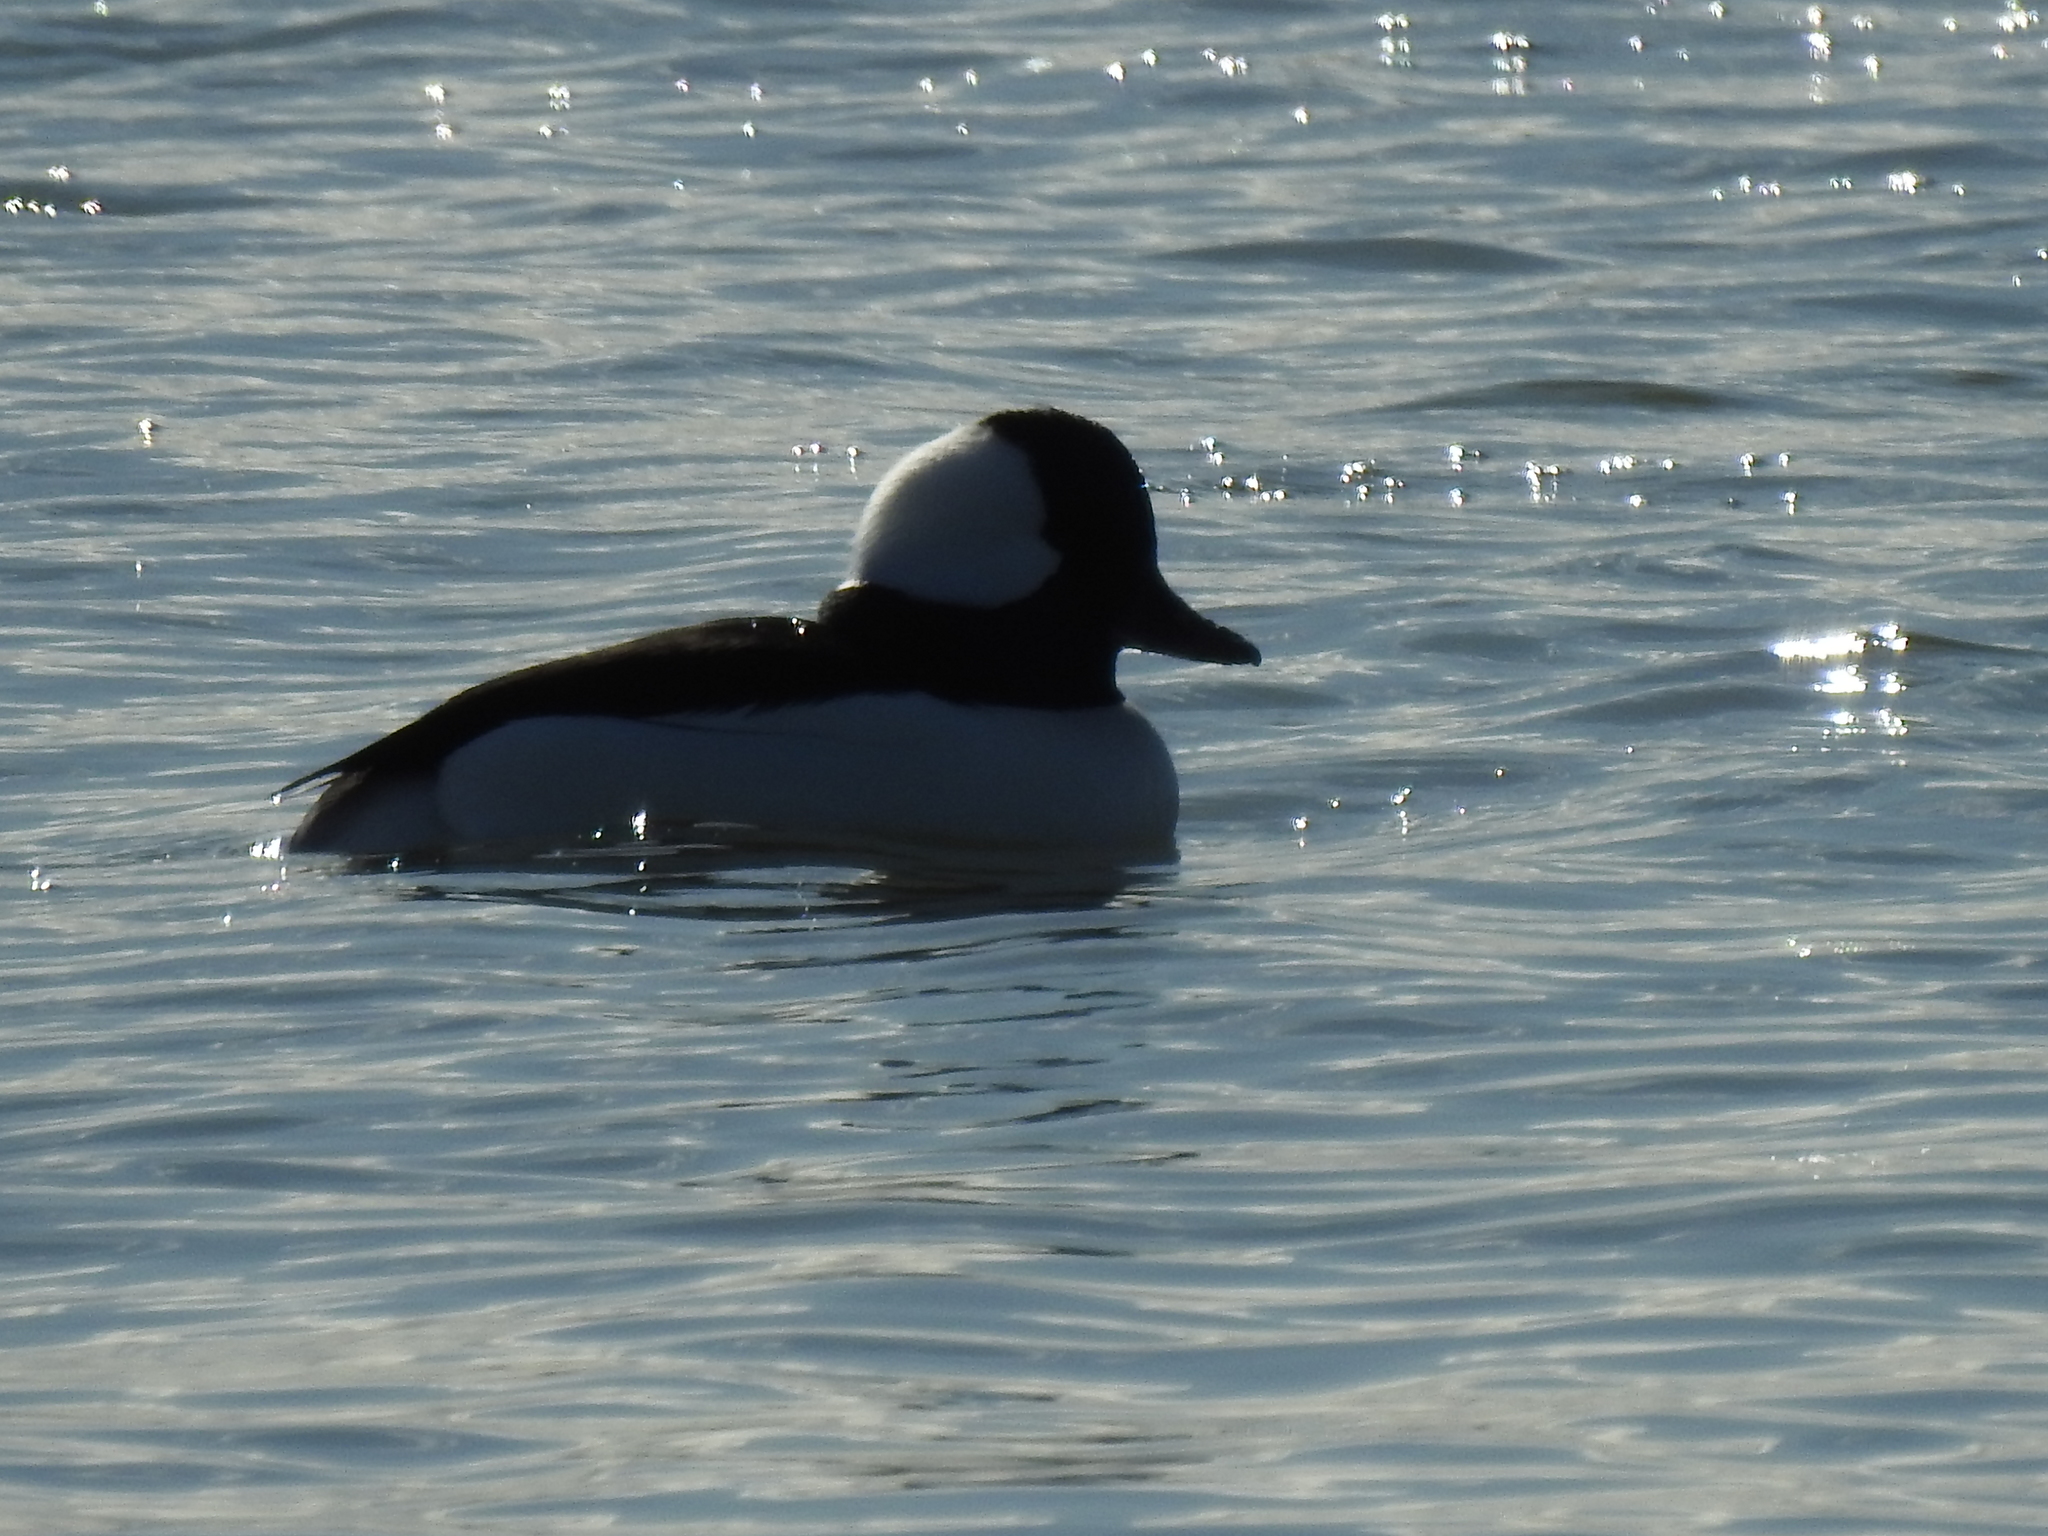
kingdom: Animalia
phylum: Chordata
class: Aves
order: Anseriformes
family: Anatidae
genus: Bucephala
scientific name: Bucephala albeola
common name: Bufflehead
